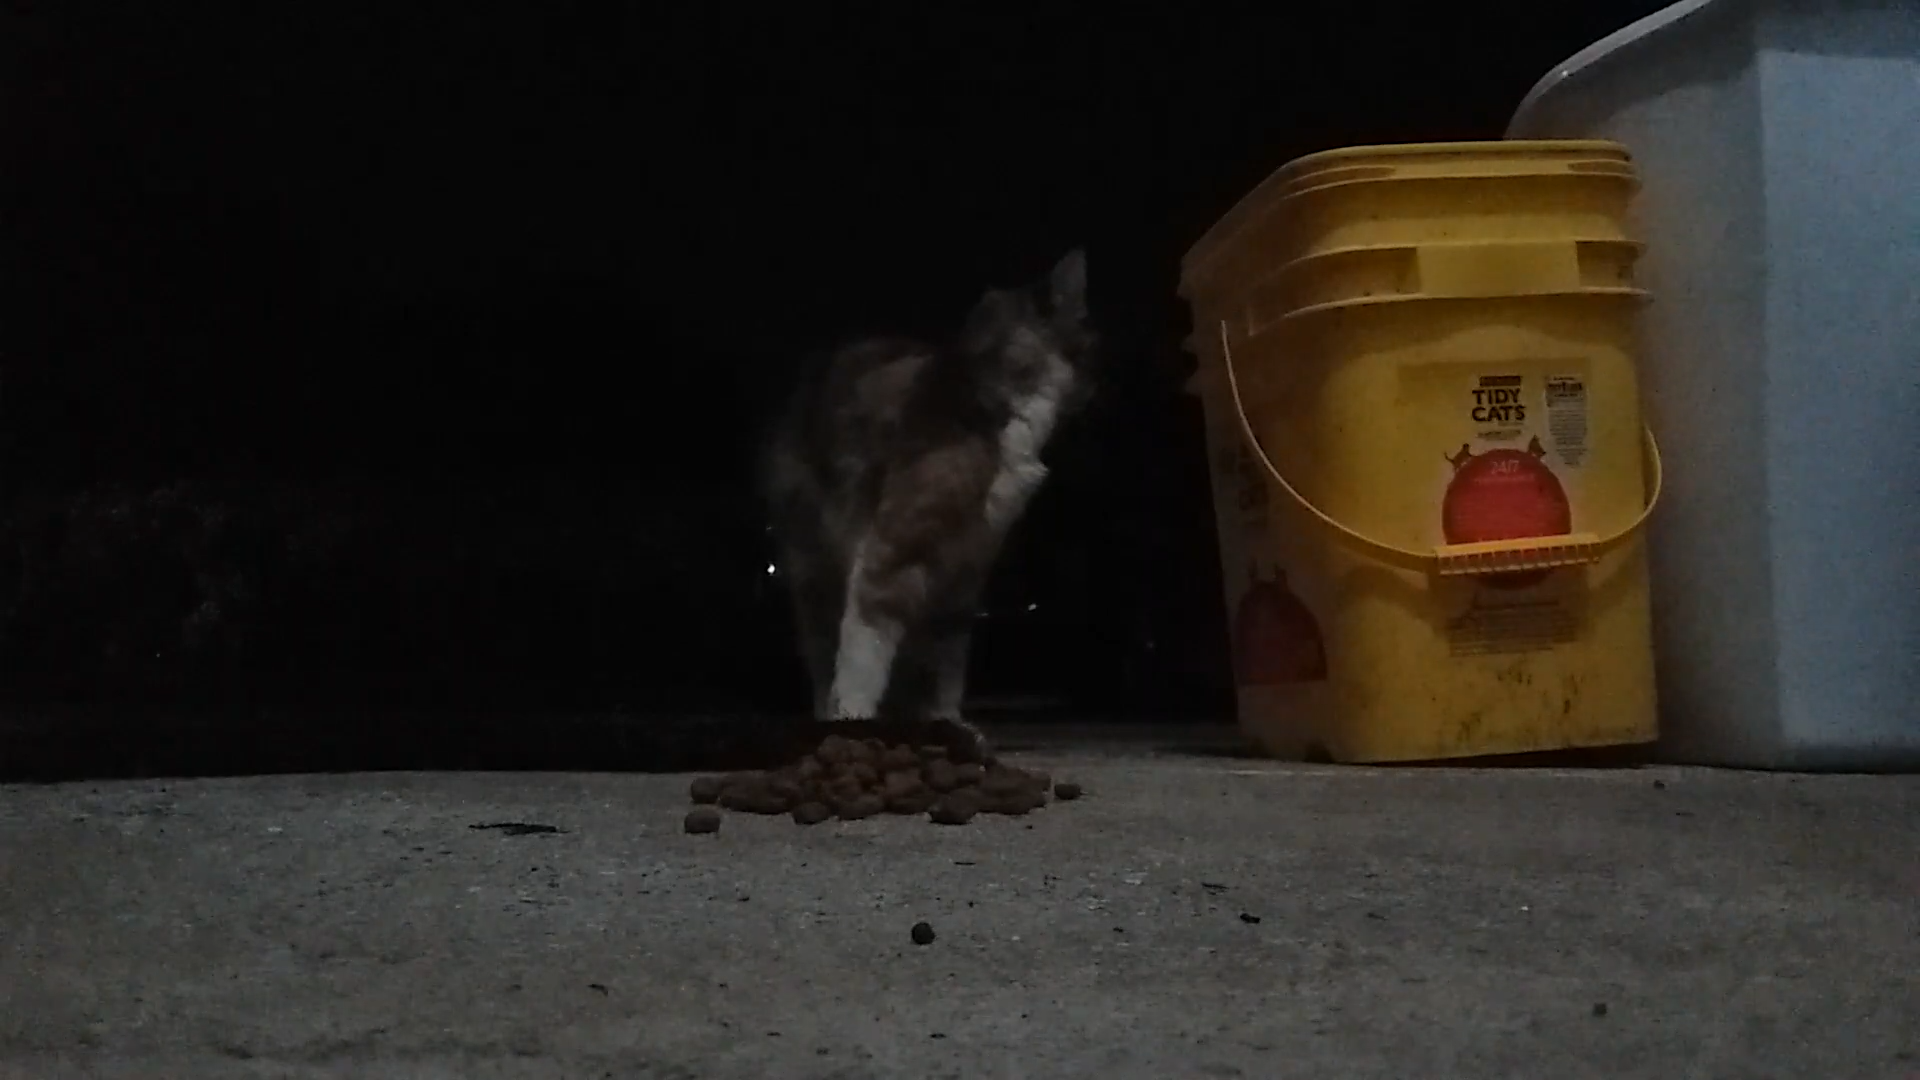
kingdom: Animalia
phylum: Chordata
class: Mammalia
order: Carnivora
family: Felidae
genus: Felis
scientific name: Felis catus
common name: Domestic cat
